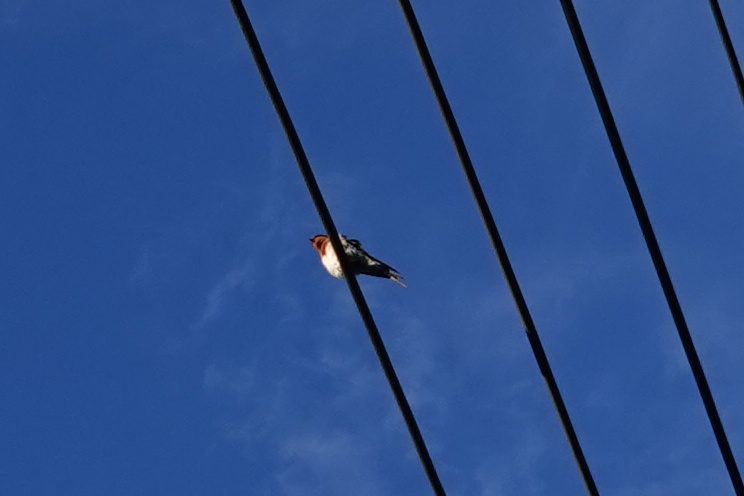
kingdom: Animalia
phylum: Chordata
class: Aves
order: Passeriformes
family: Hirundinidae
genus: Hirundo
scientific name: Hirundo neoxena
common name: Welcome swallow
